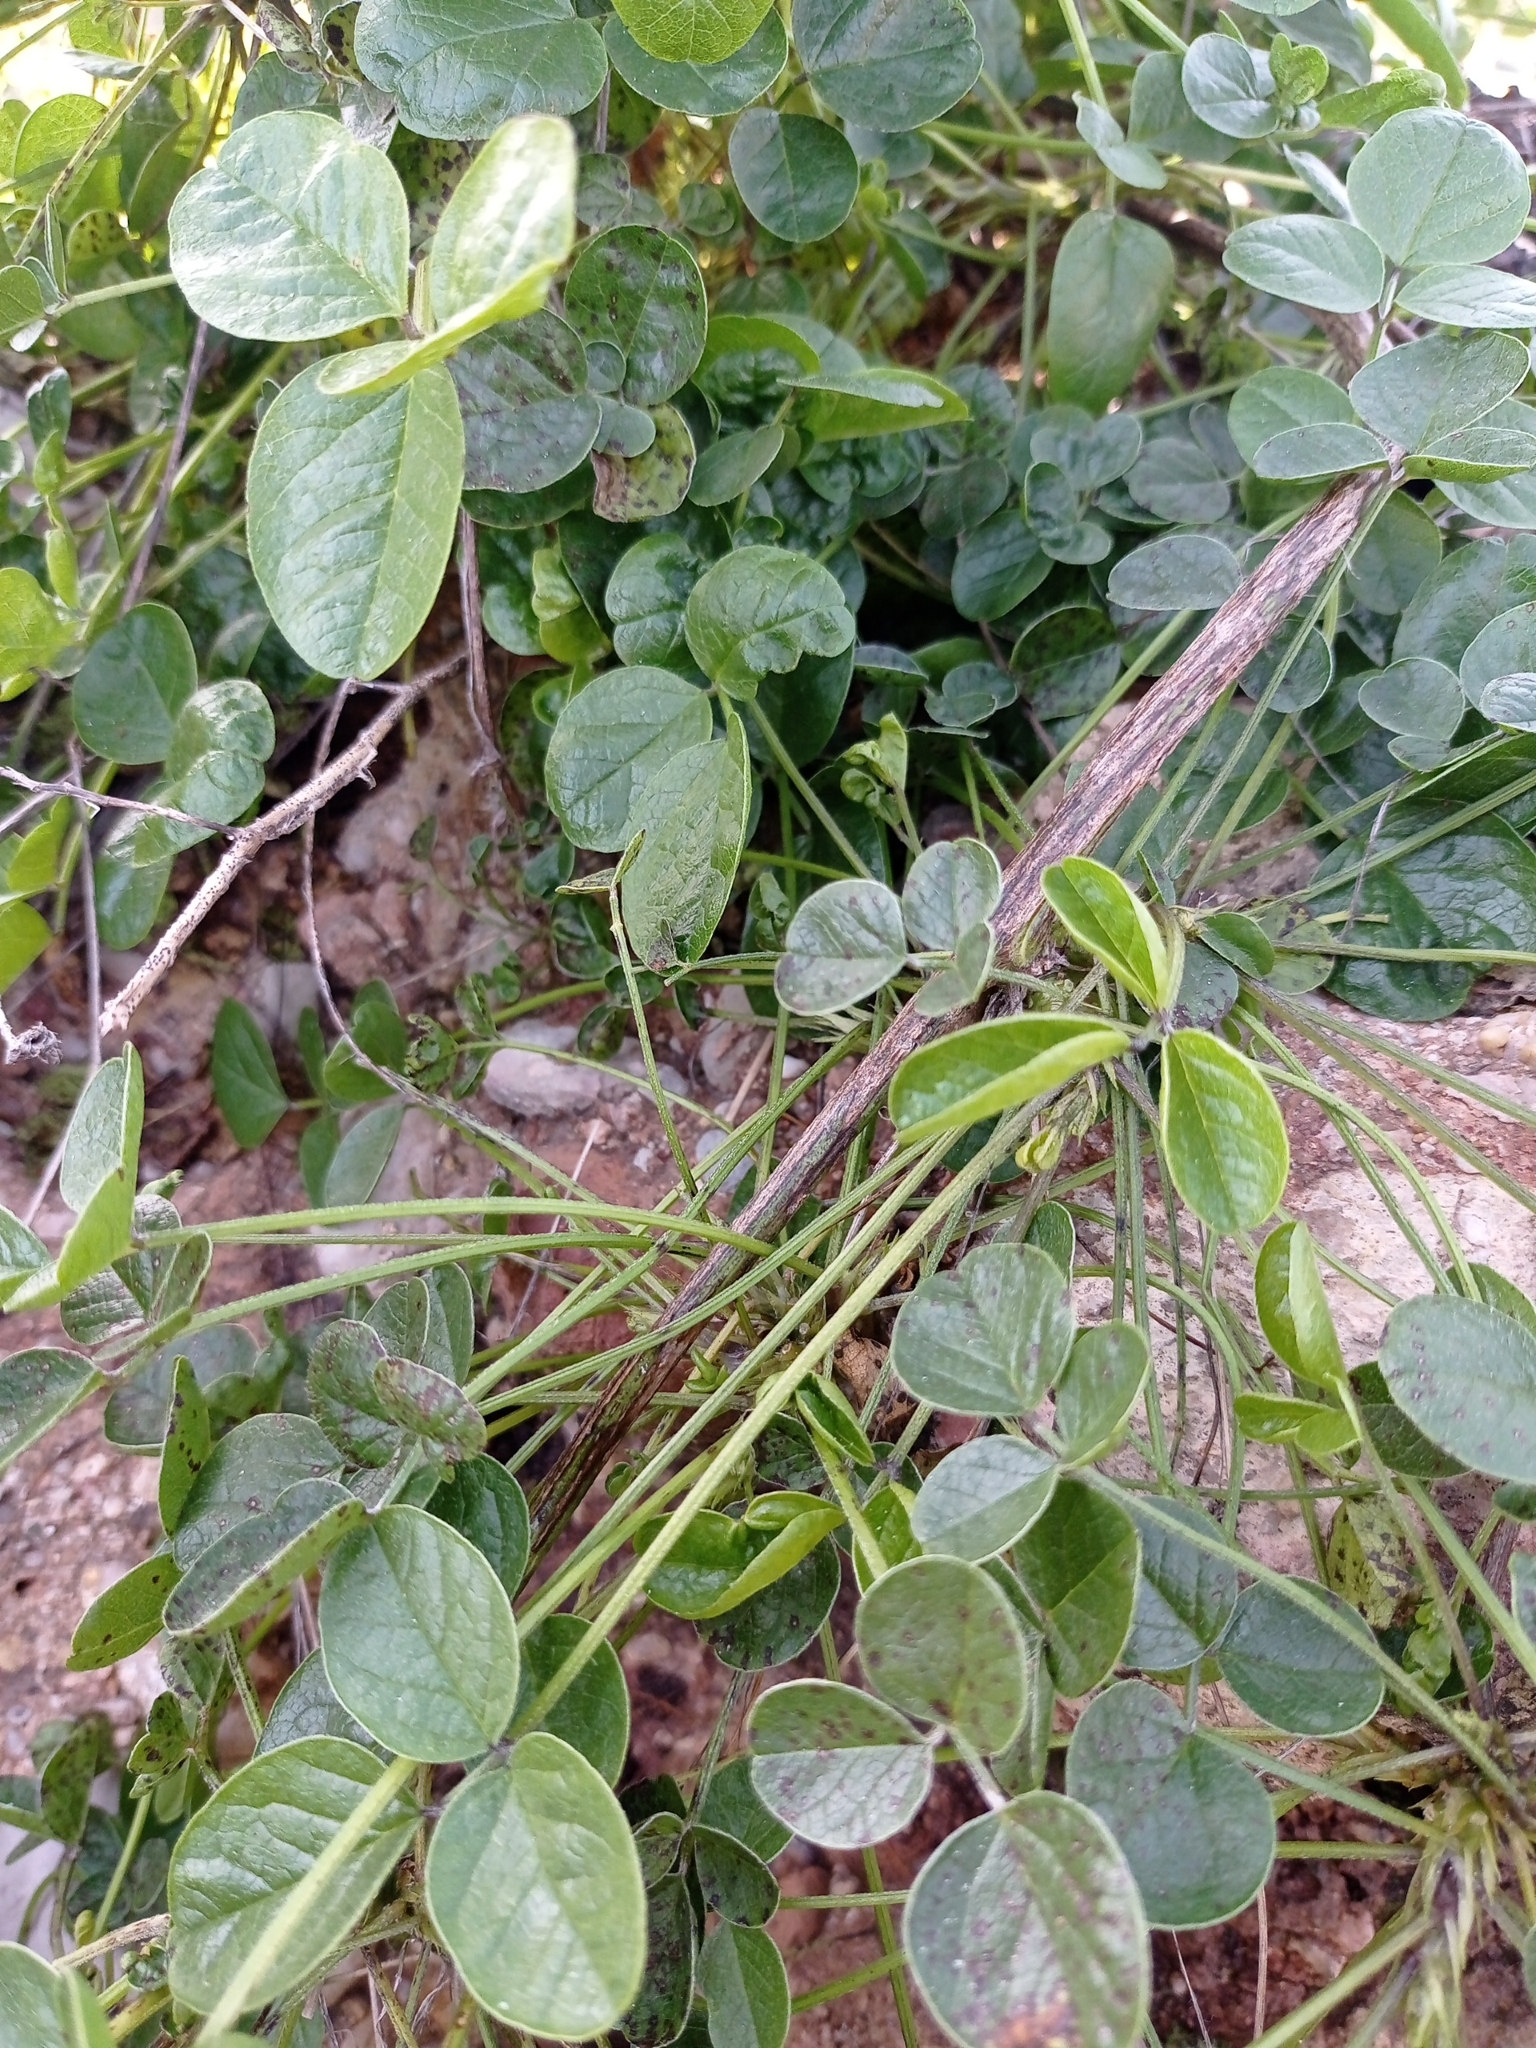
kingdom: Plantae
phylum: Tracheophyta
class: Magnoliopsida
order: Fabales
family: Fabaceae
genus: Bituminaria
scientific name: Bituminaria bituminosa
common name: Arabian pea
